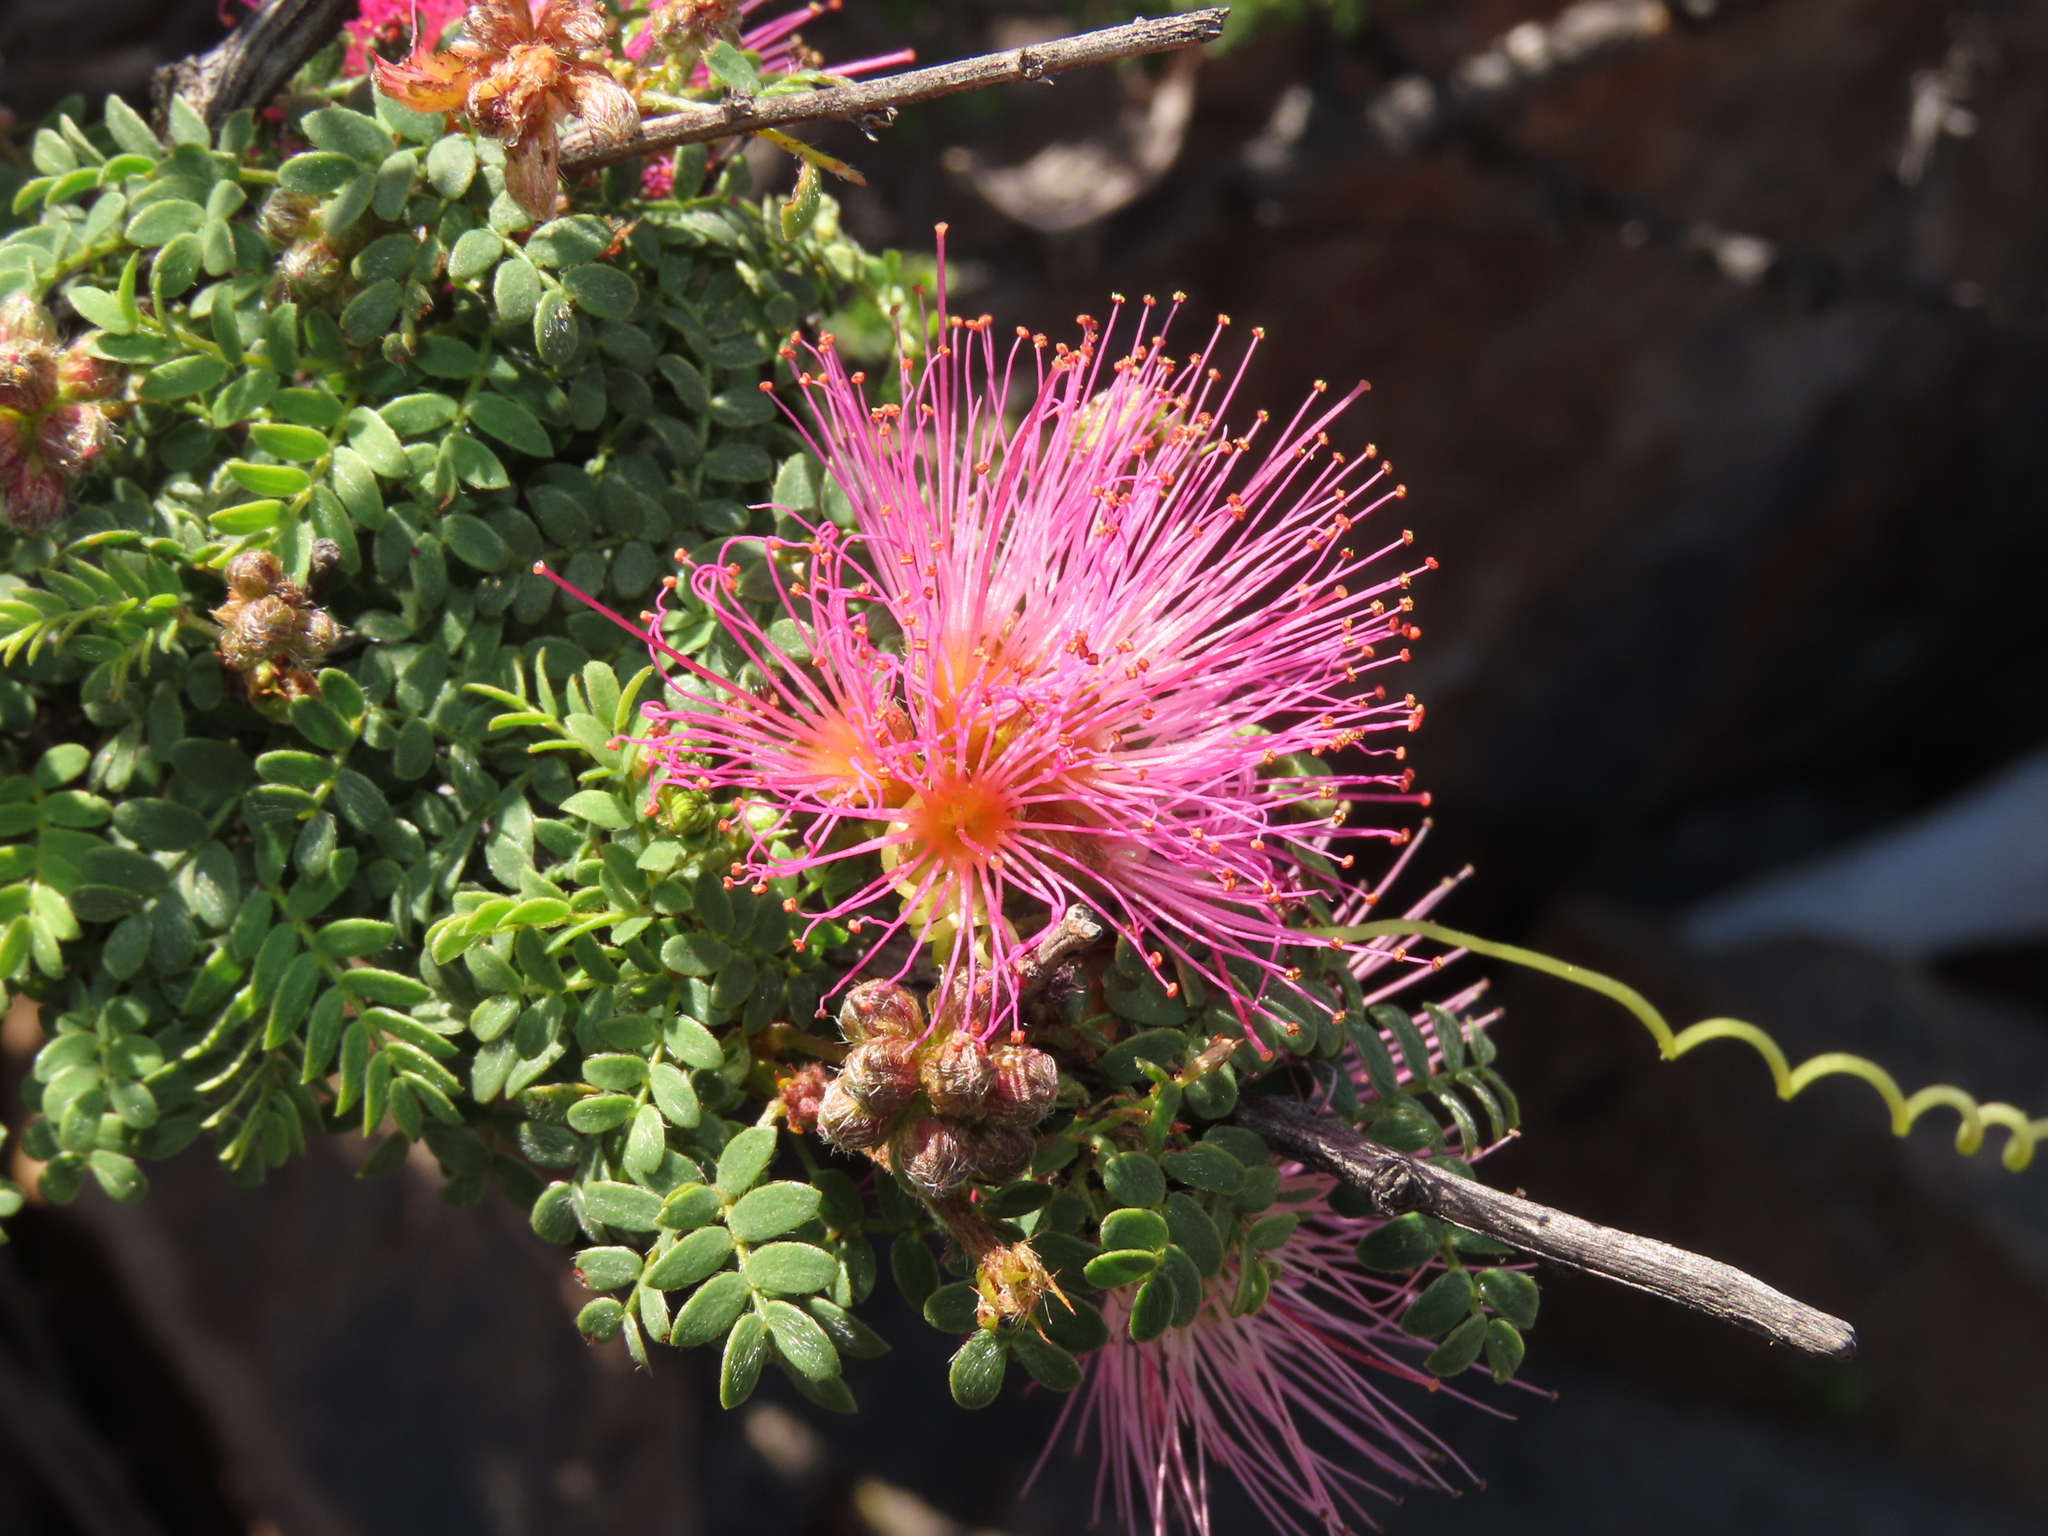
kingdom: Plantae
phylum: Tracheophyta
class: Magnoliopsida
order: Fabales
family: Fabaceae
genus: Calliandra
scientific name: Calliandra chilensis
